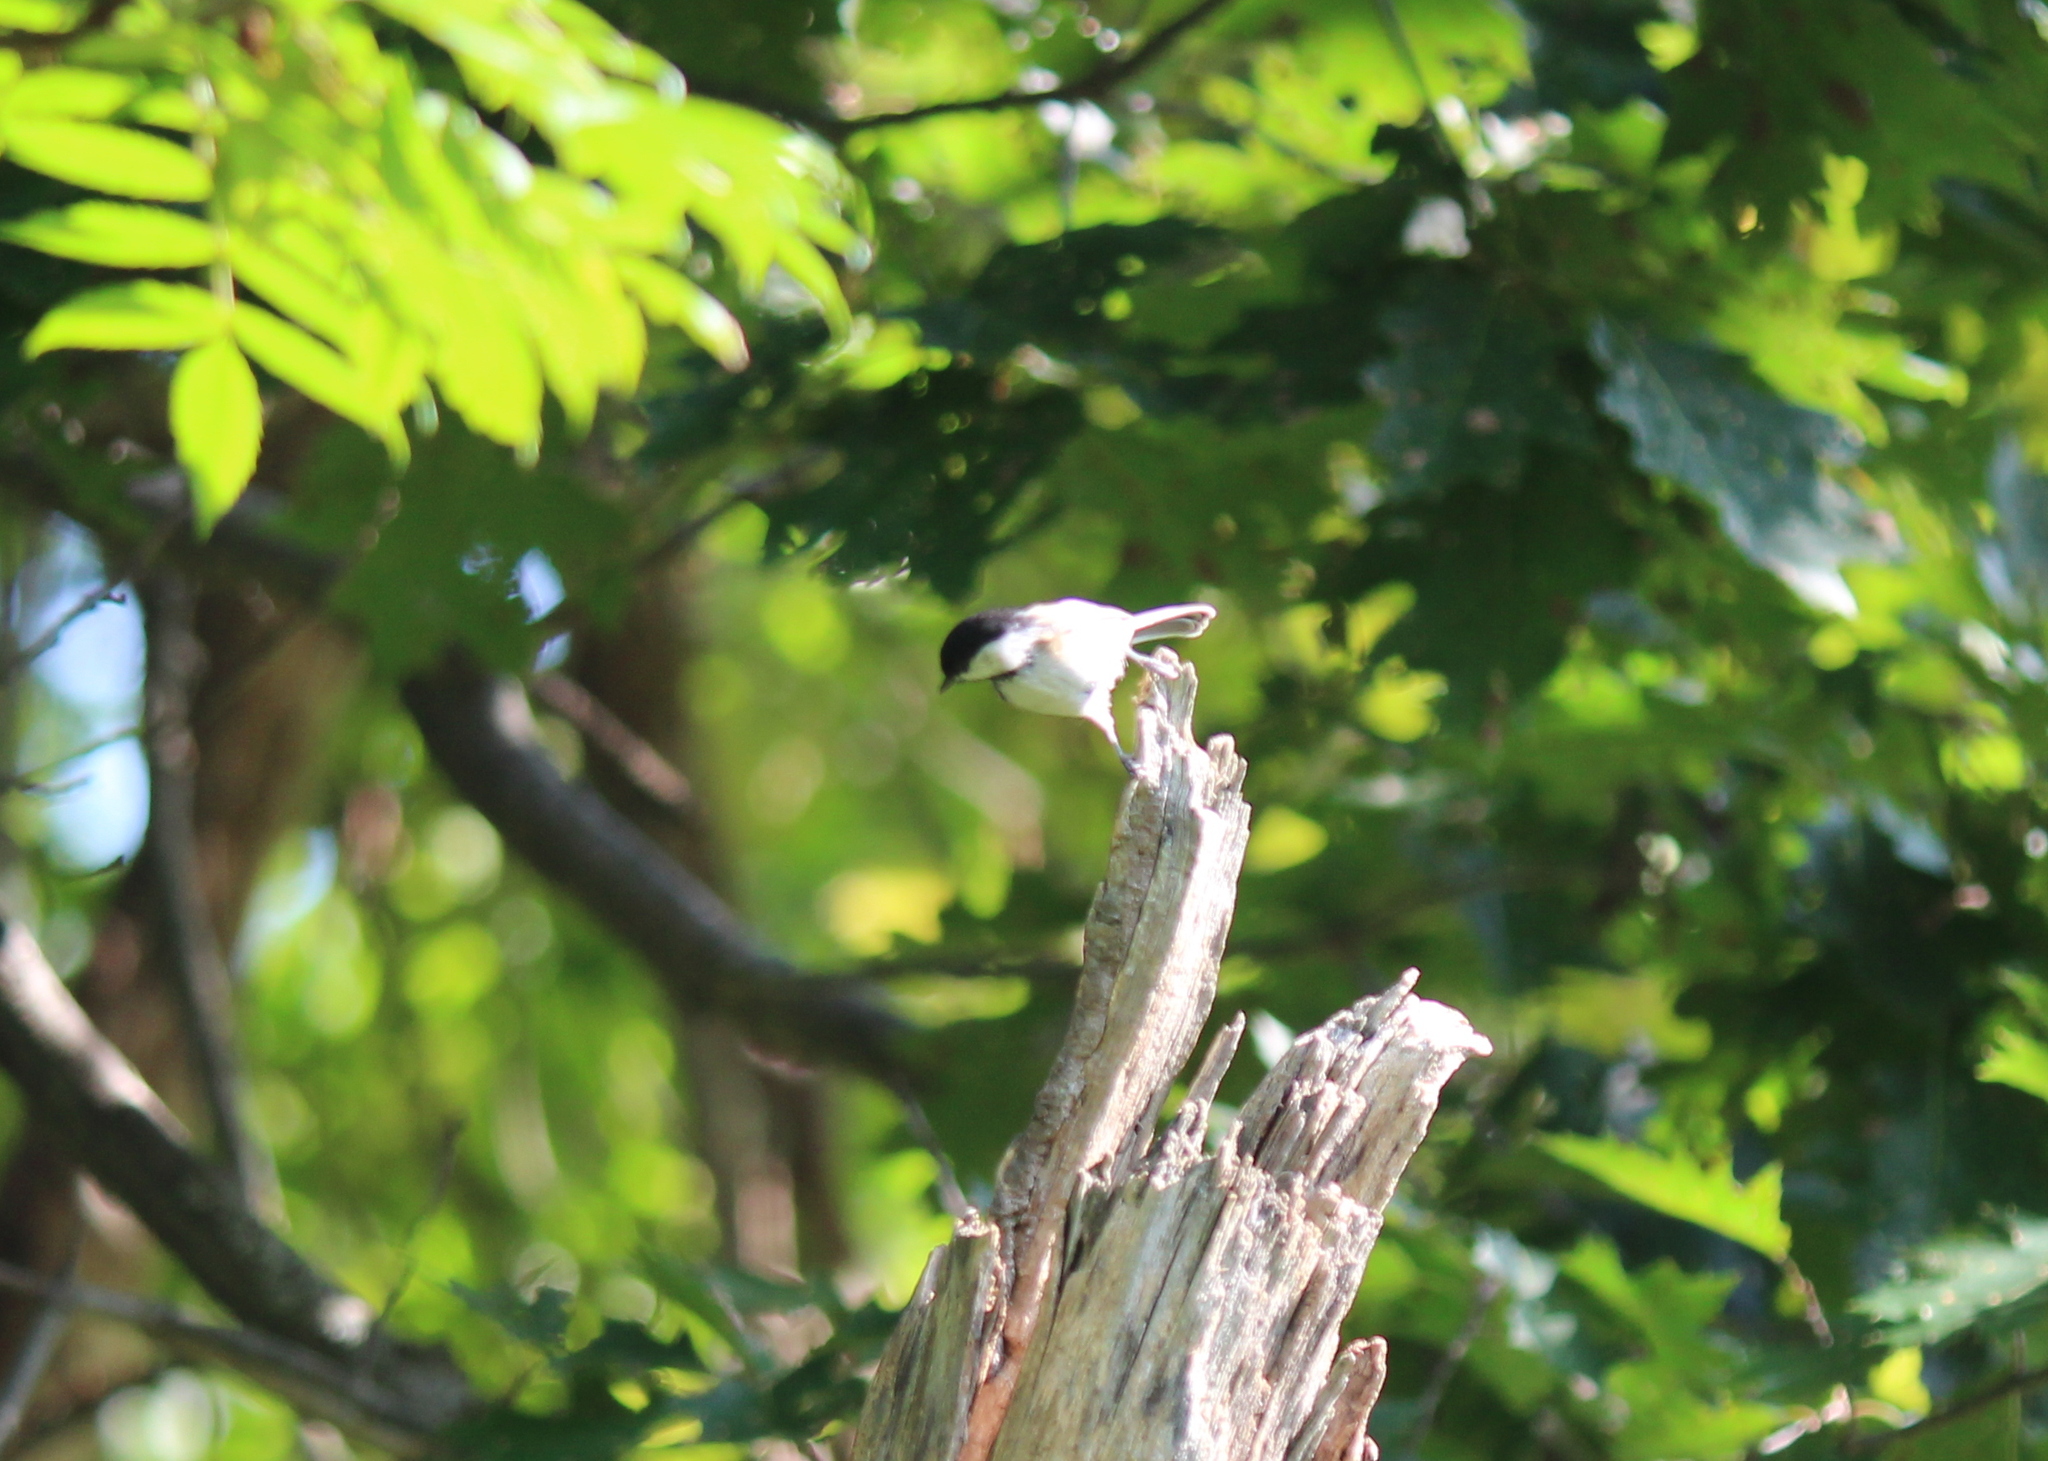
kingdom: Animalia
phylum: Chordata
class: Aves
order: Passeriformes
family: Paridae
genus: Poecile
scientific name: Poecile atricapillus
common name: Black-capped chickadee
